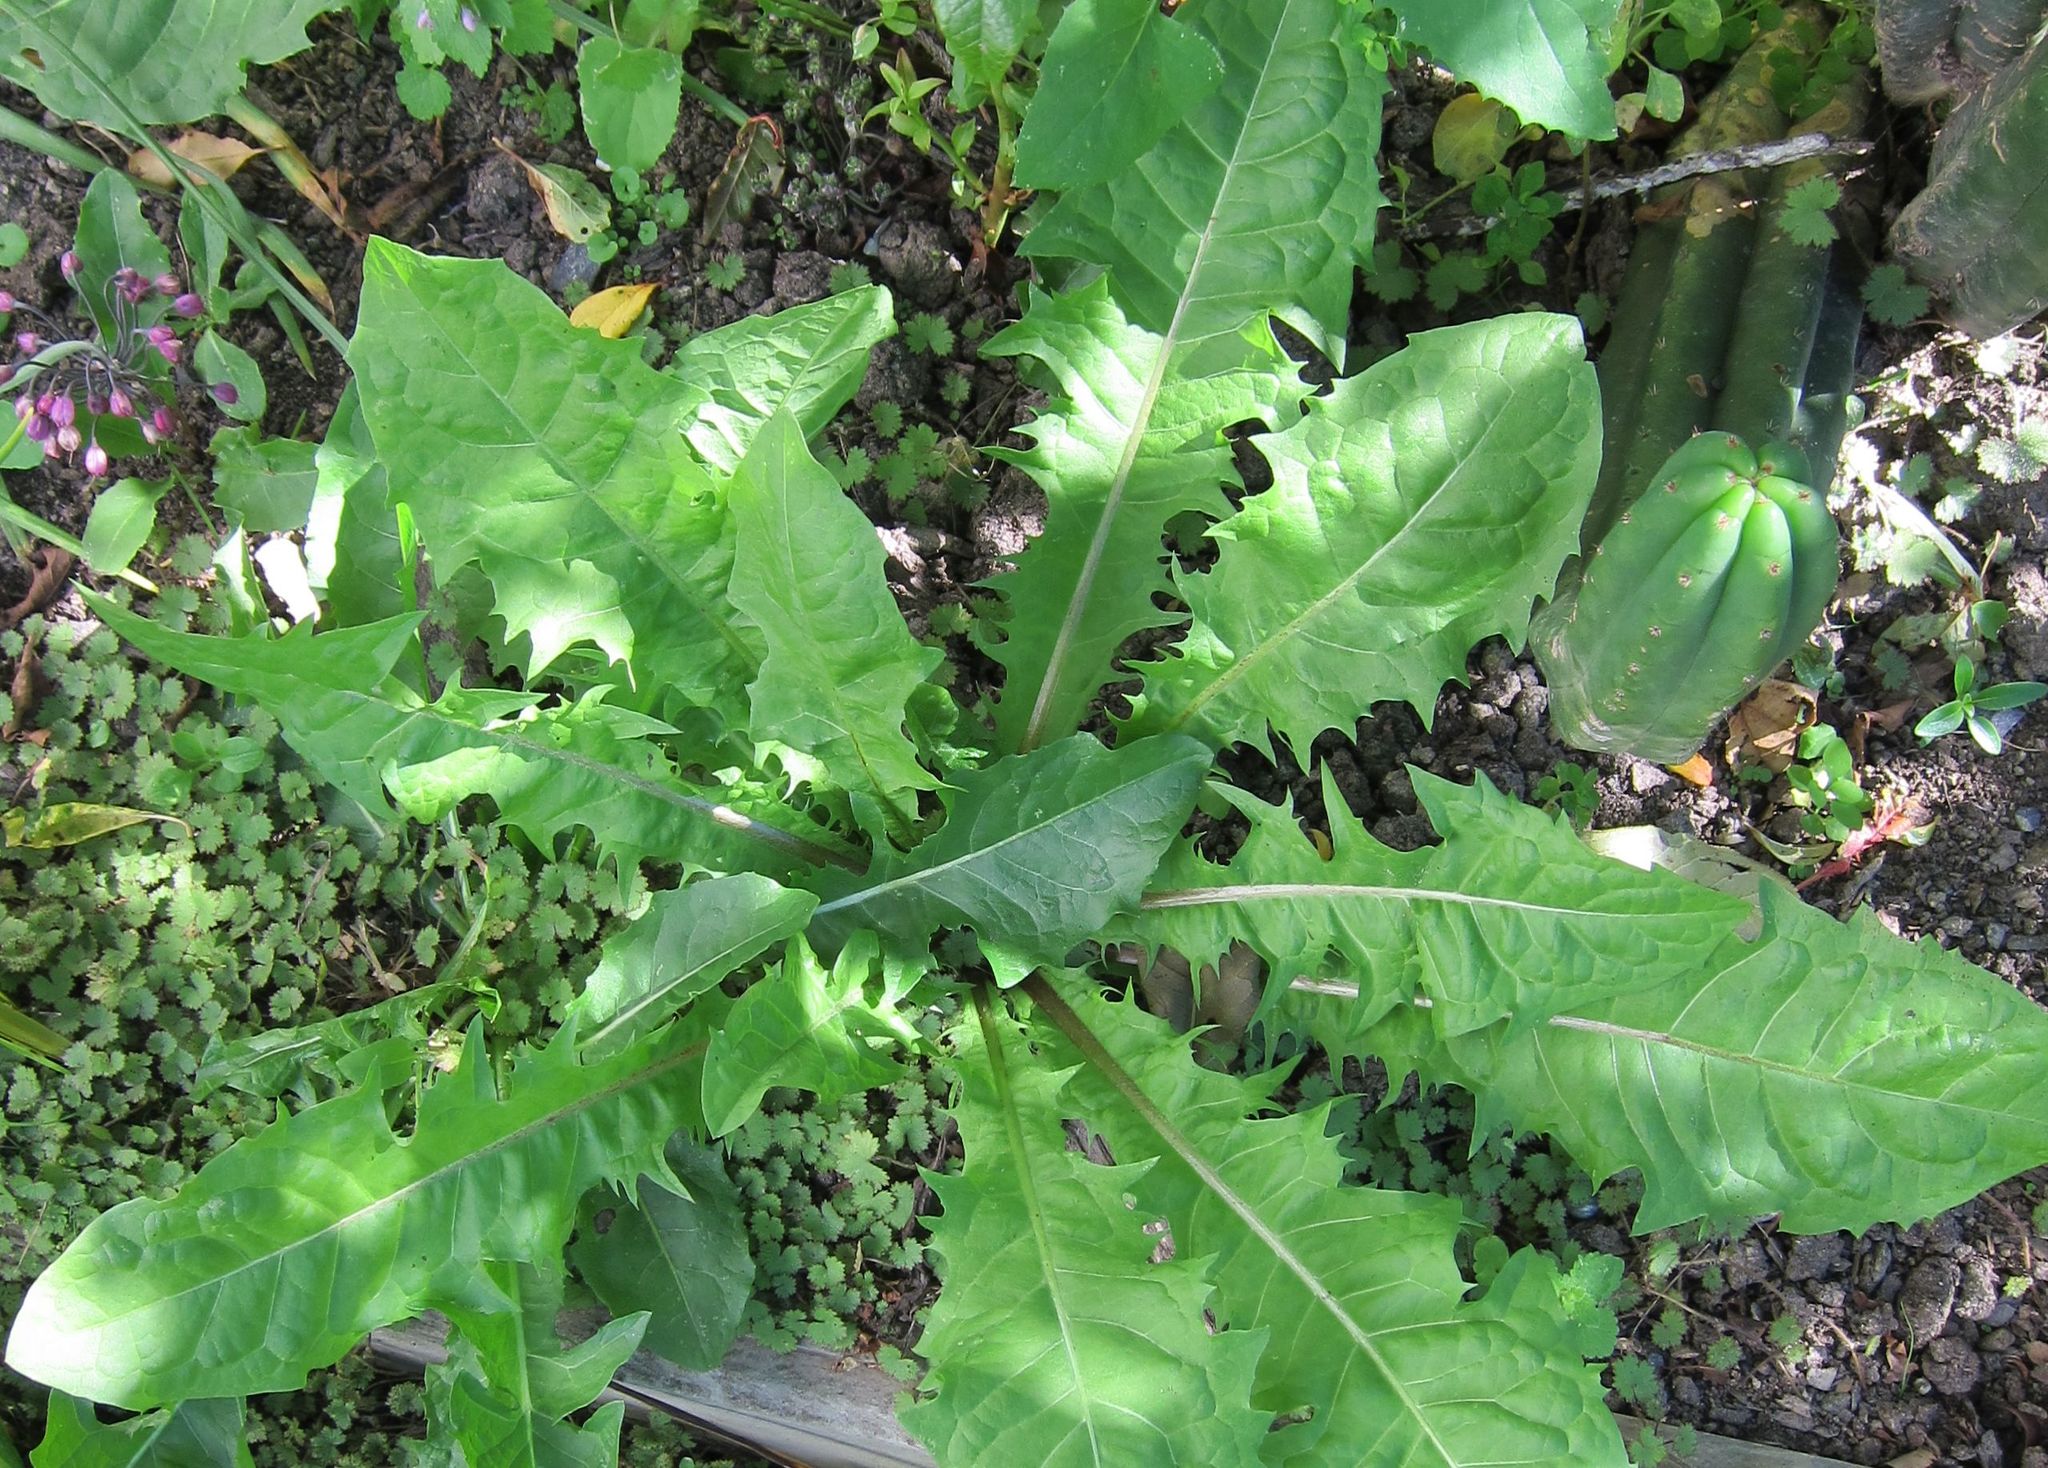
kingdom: Plantae
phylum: Tracheophyta
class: Magnoliopsida
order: Asterales
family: Asteraceae
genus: Taraxacum
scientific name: Taraxacum officinale
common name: Common dandelion
